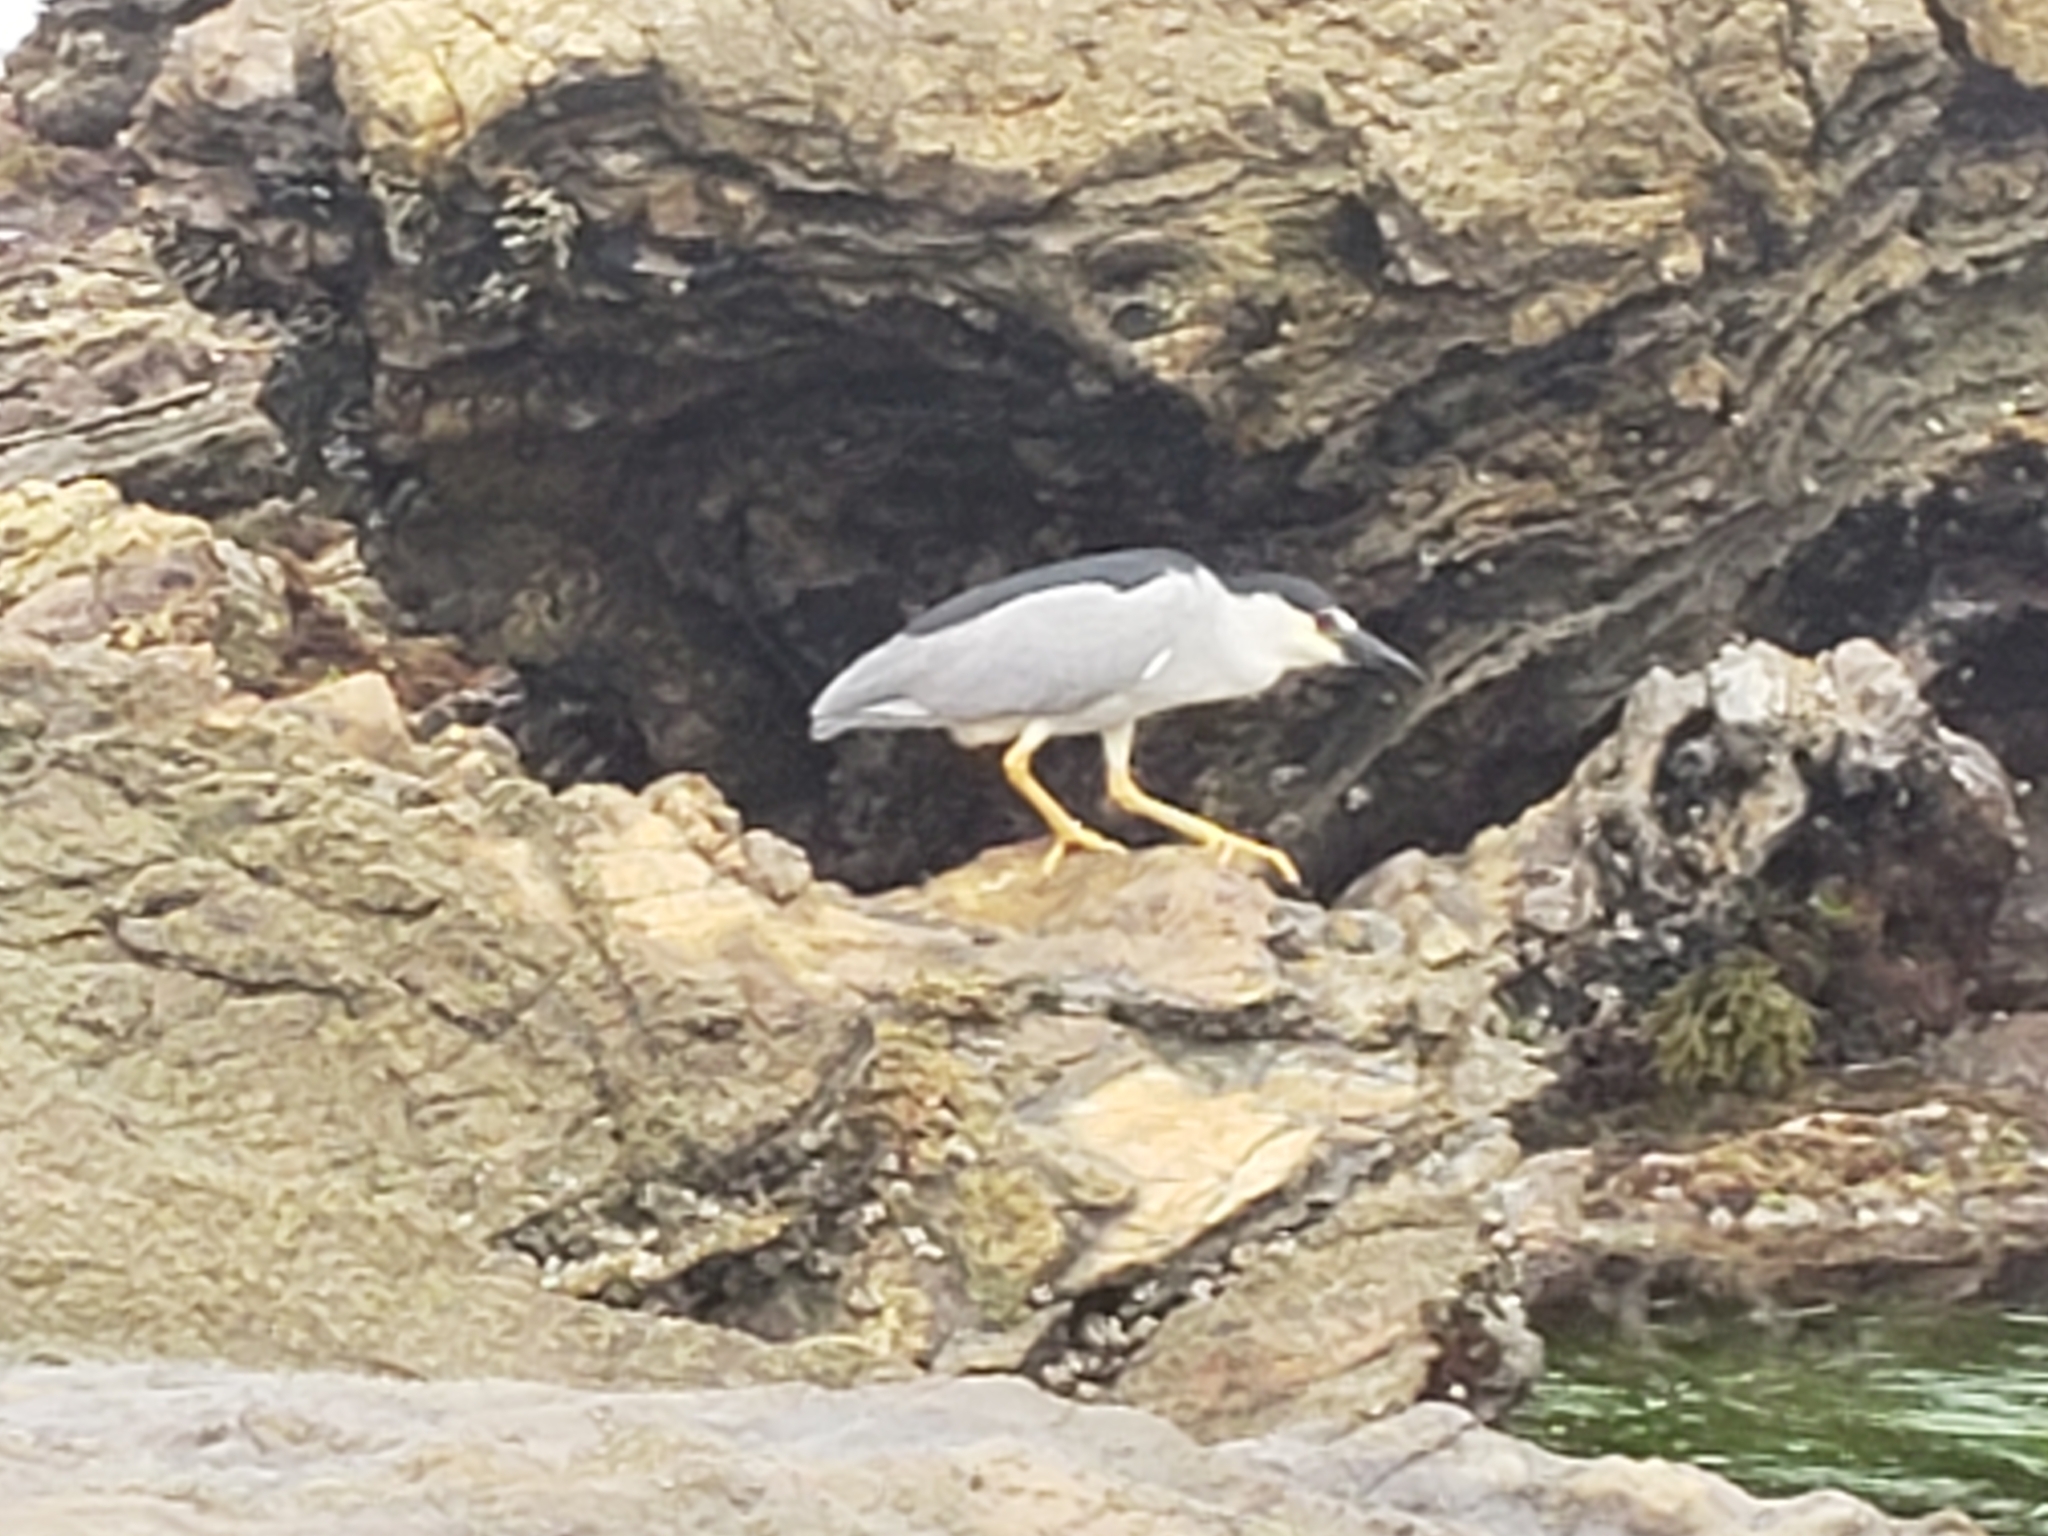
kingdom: Animalia
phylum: Chordata
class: Aves
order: Pelecaniformes
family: Ardeidae
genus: Nycticorax
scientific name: Nycticorax nycticorax
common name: Black-crowned night heron
